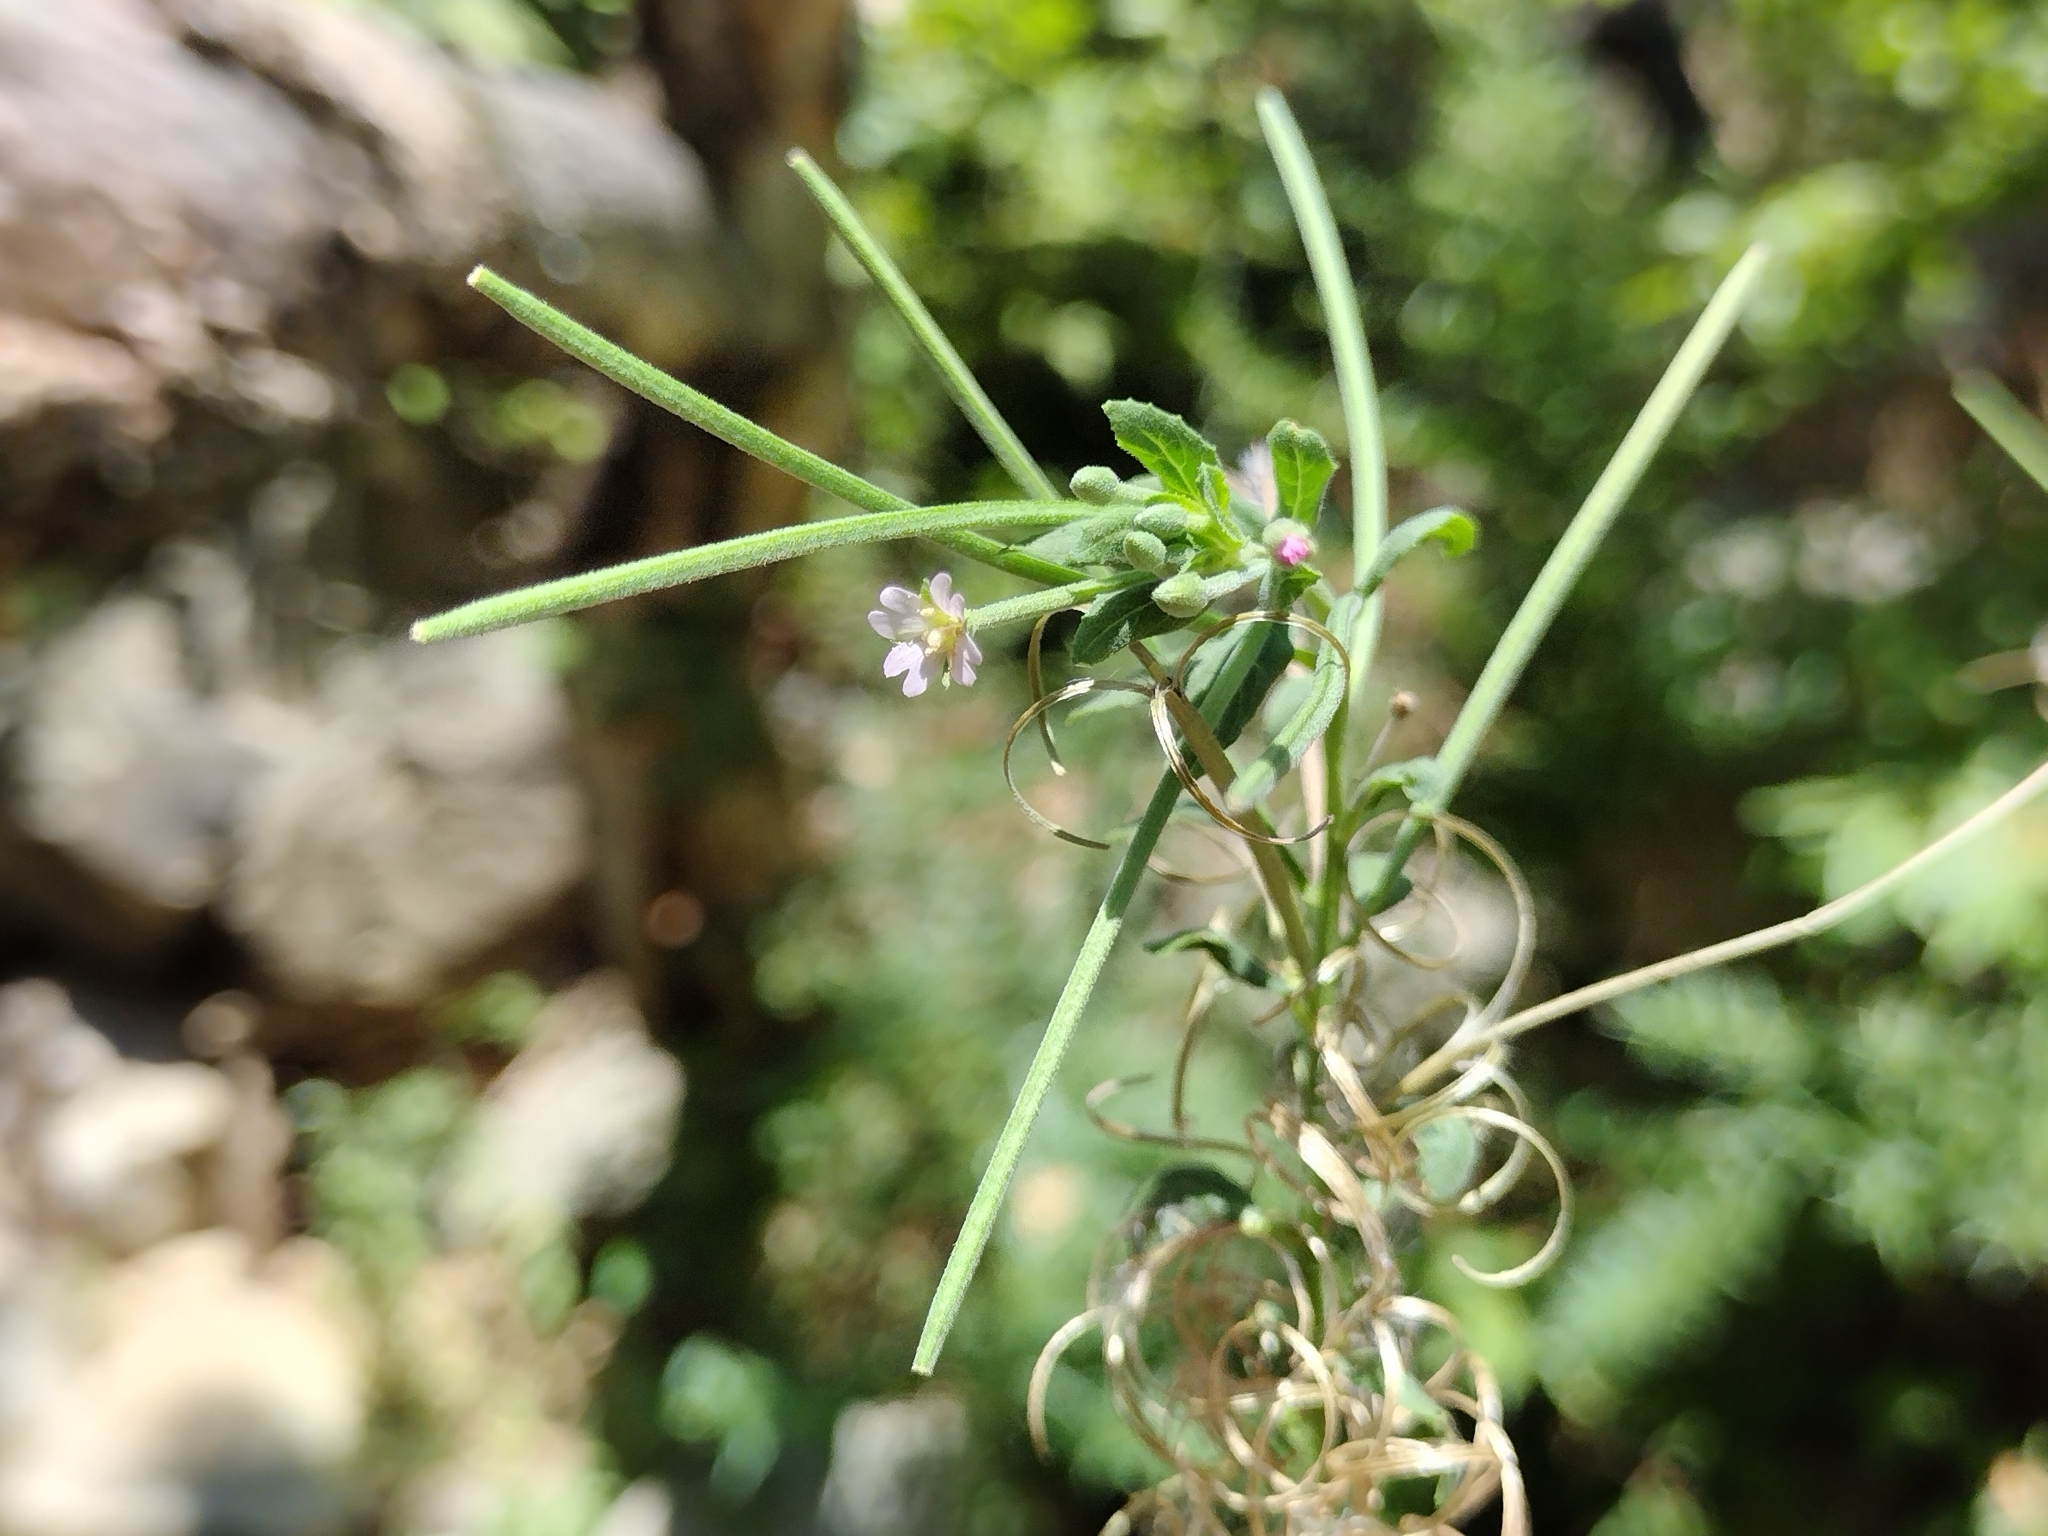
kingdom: Plantae
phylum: Tracheophyta
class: Magnoliopsida
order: Myrtales
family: Onagraceae
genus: Epilobium
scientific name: Epilobium ciliatum
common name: American willowherb
